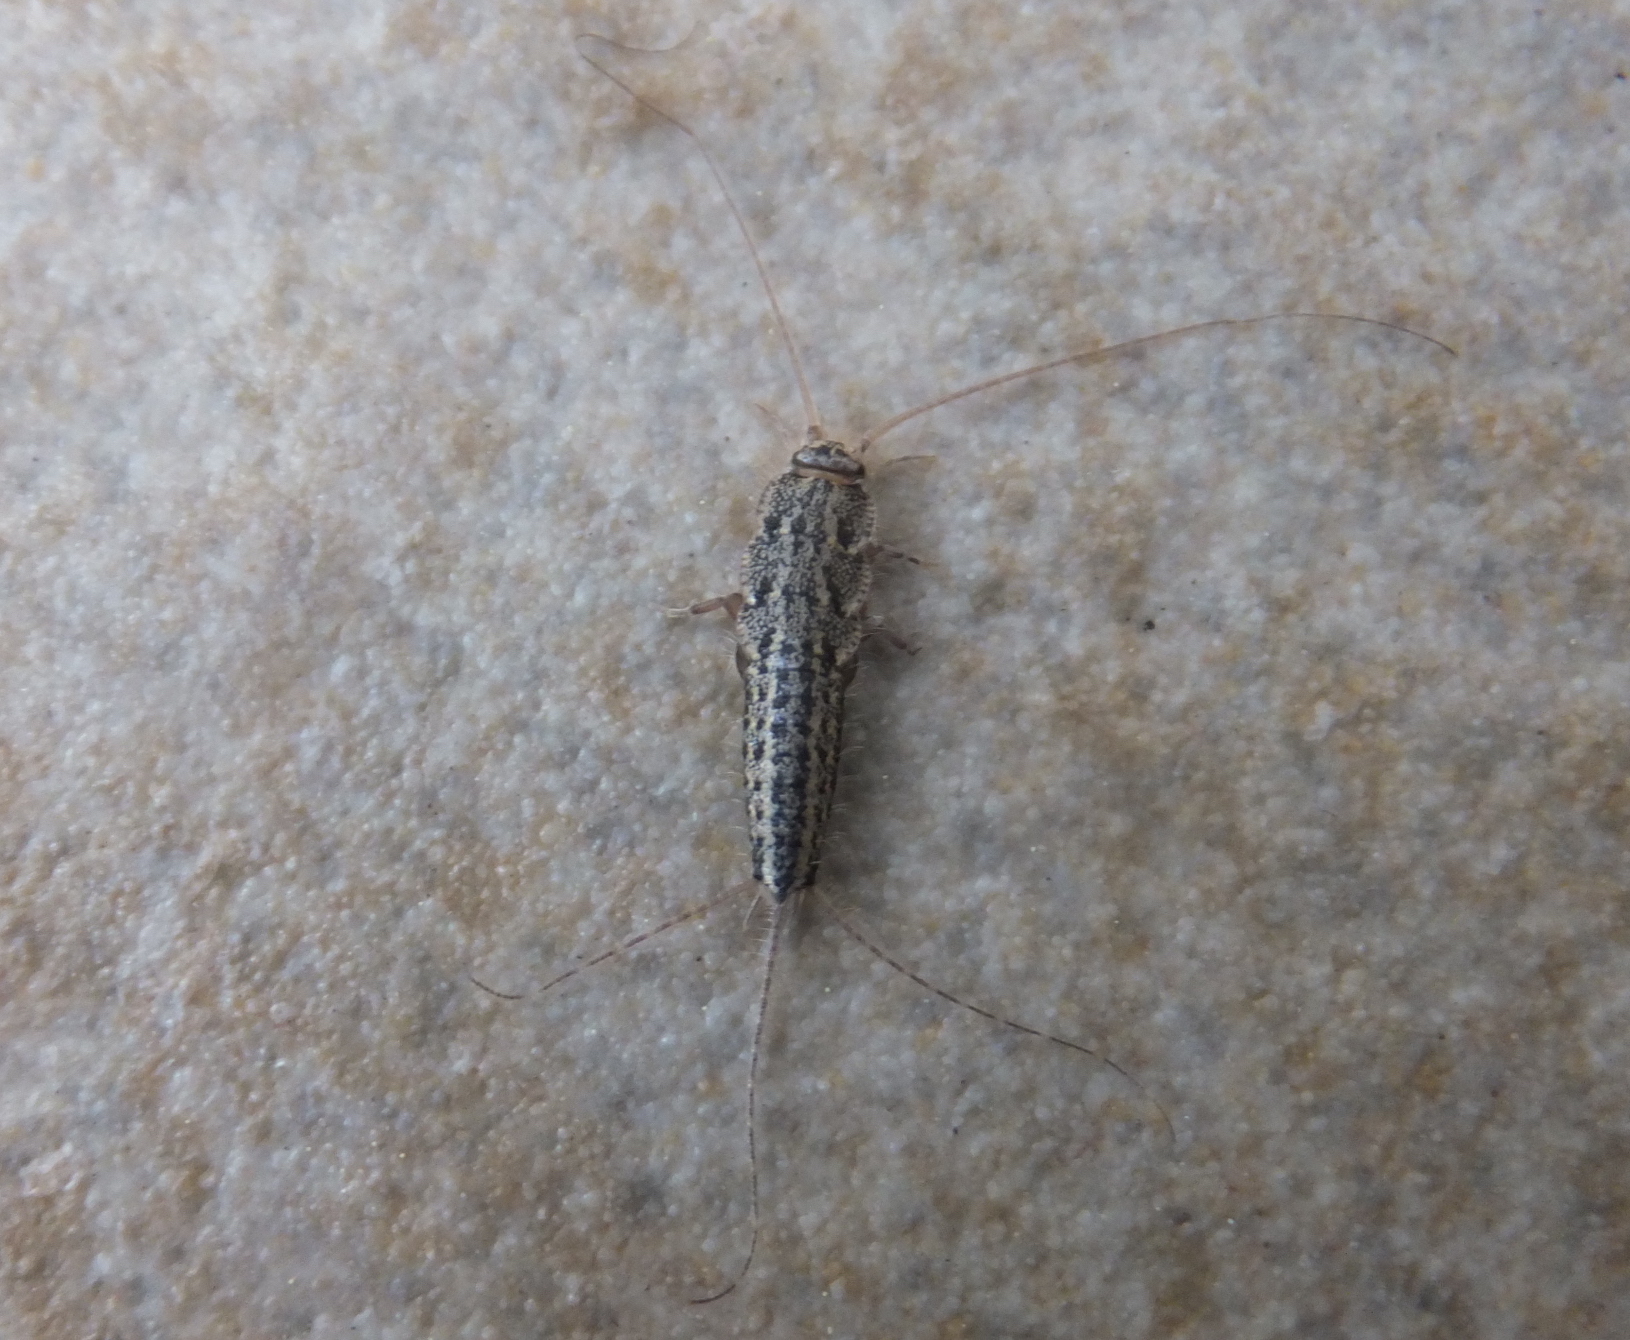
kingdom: Animalia
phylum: Arthropoda
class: Insecta
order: Zygentoma
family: Lepismatidae
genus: Ctenolepisma
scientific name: Ctenolepisma lineata
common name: Four-lined silverfish
